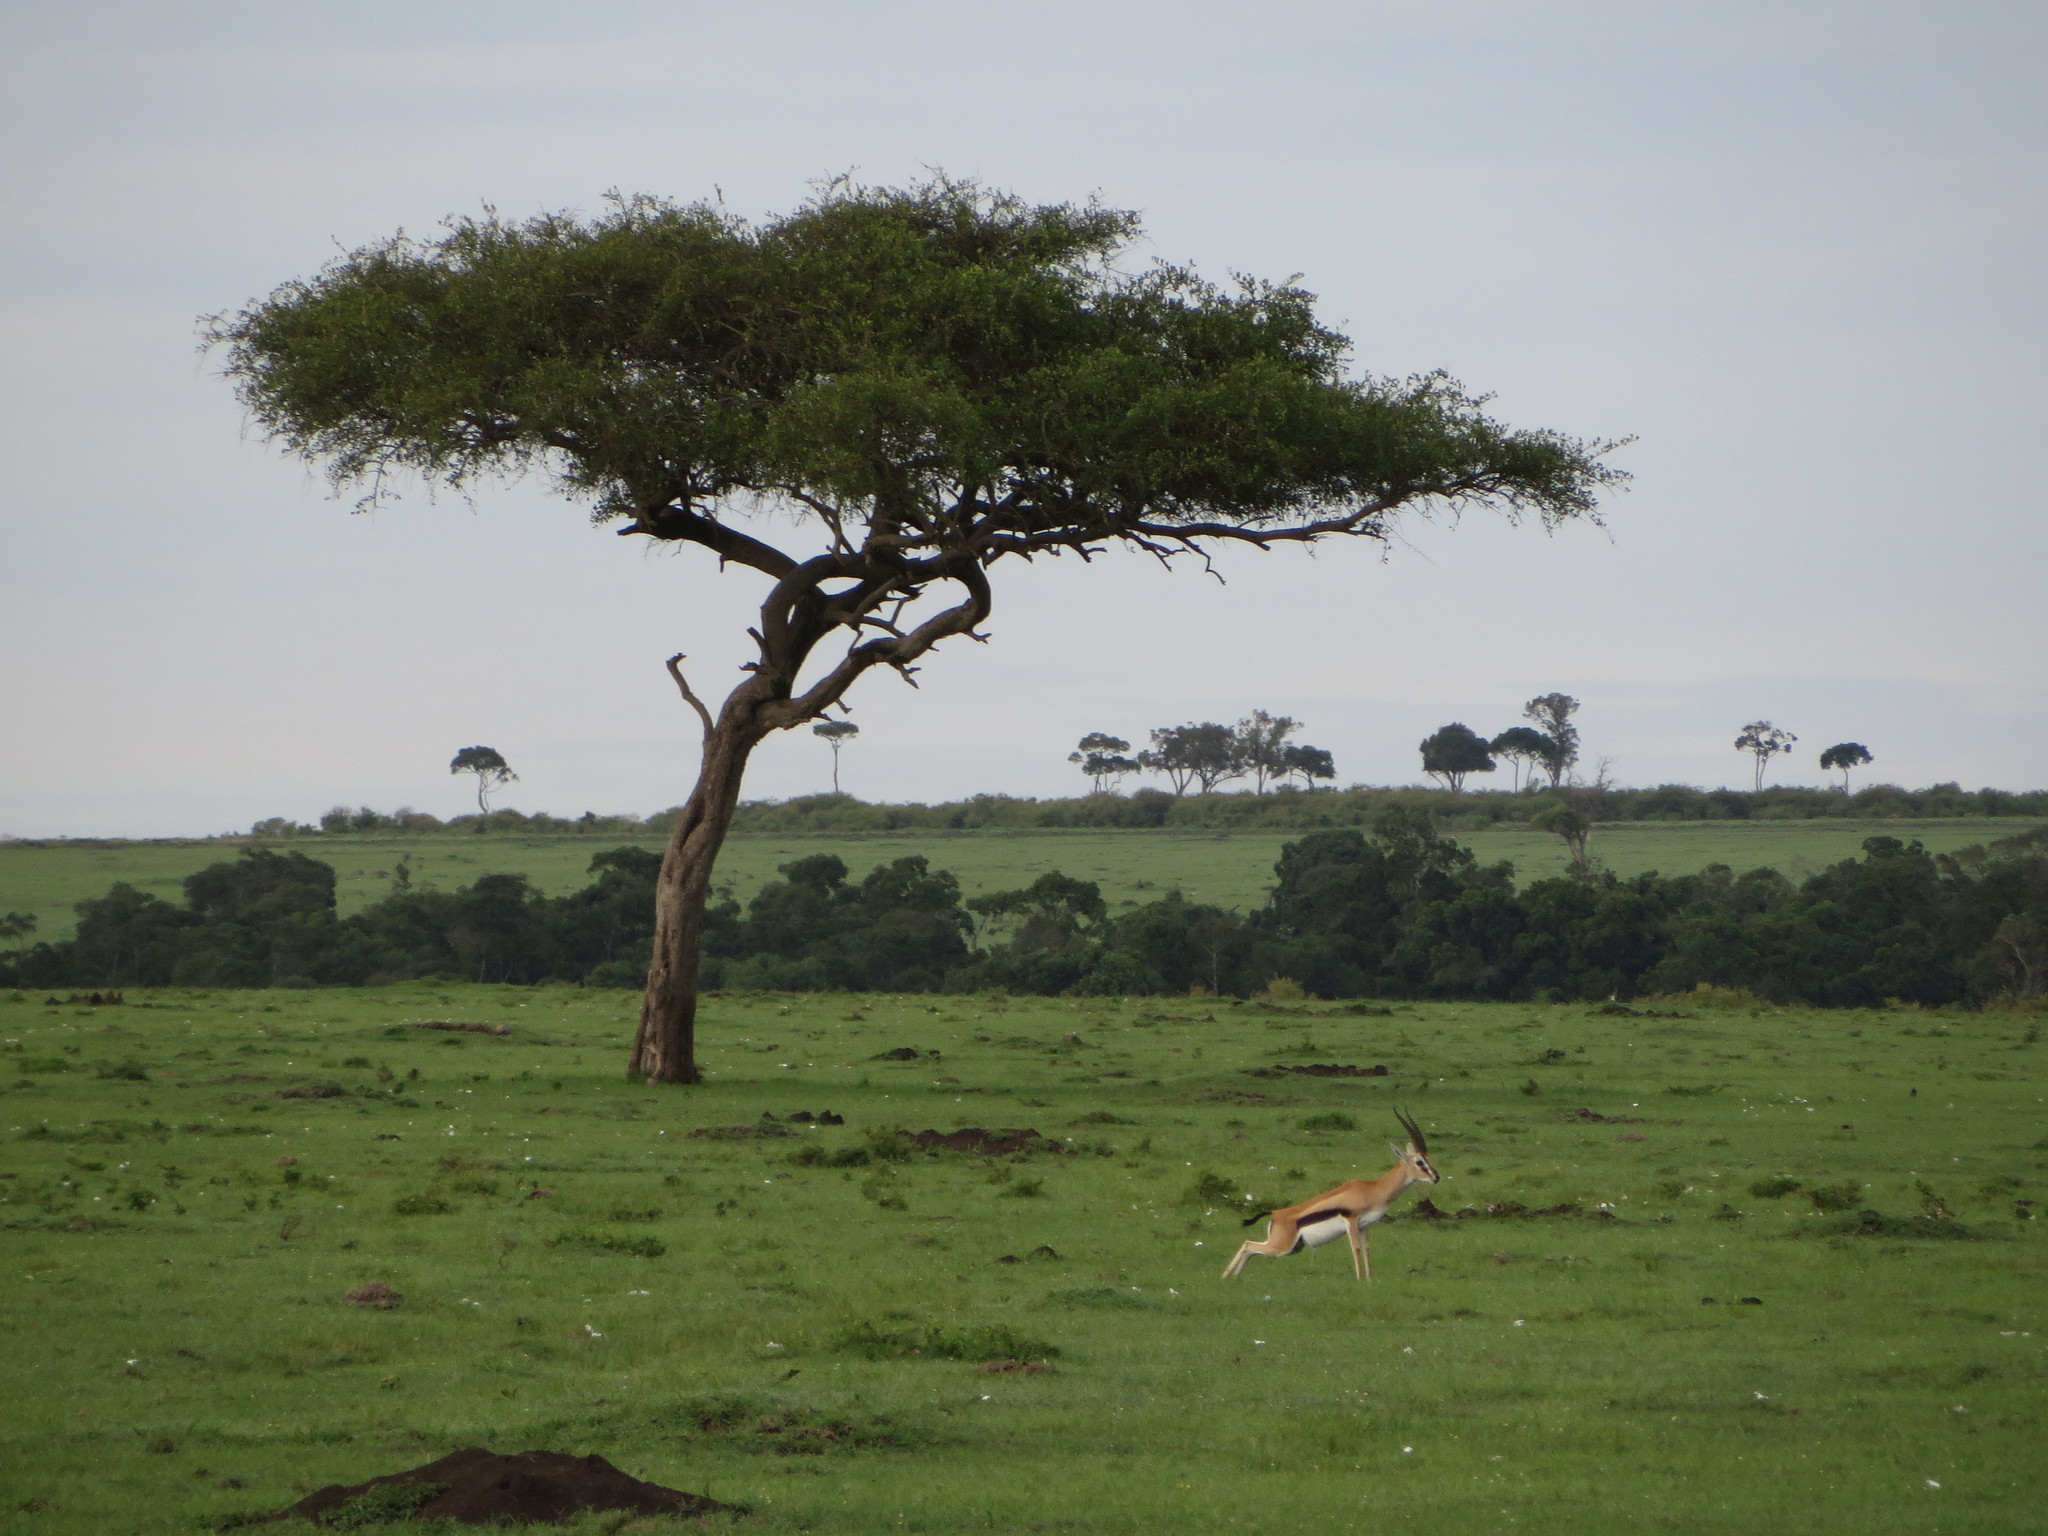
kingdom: Plantae
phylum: Tracheophyta
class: Magnoliopsida
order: Zygophyllales
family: Zygophyllaceae
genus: Balanites
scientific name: Balanites aegyptiaca
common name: Balanites
